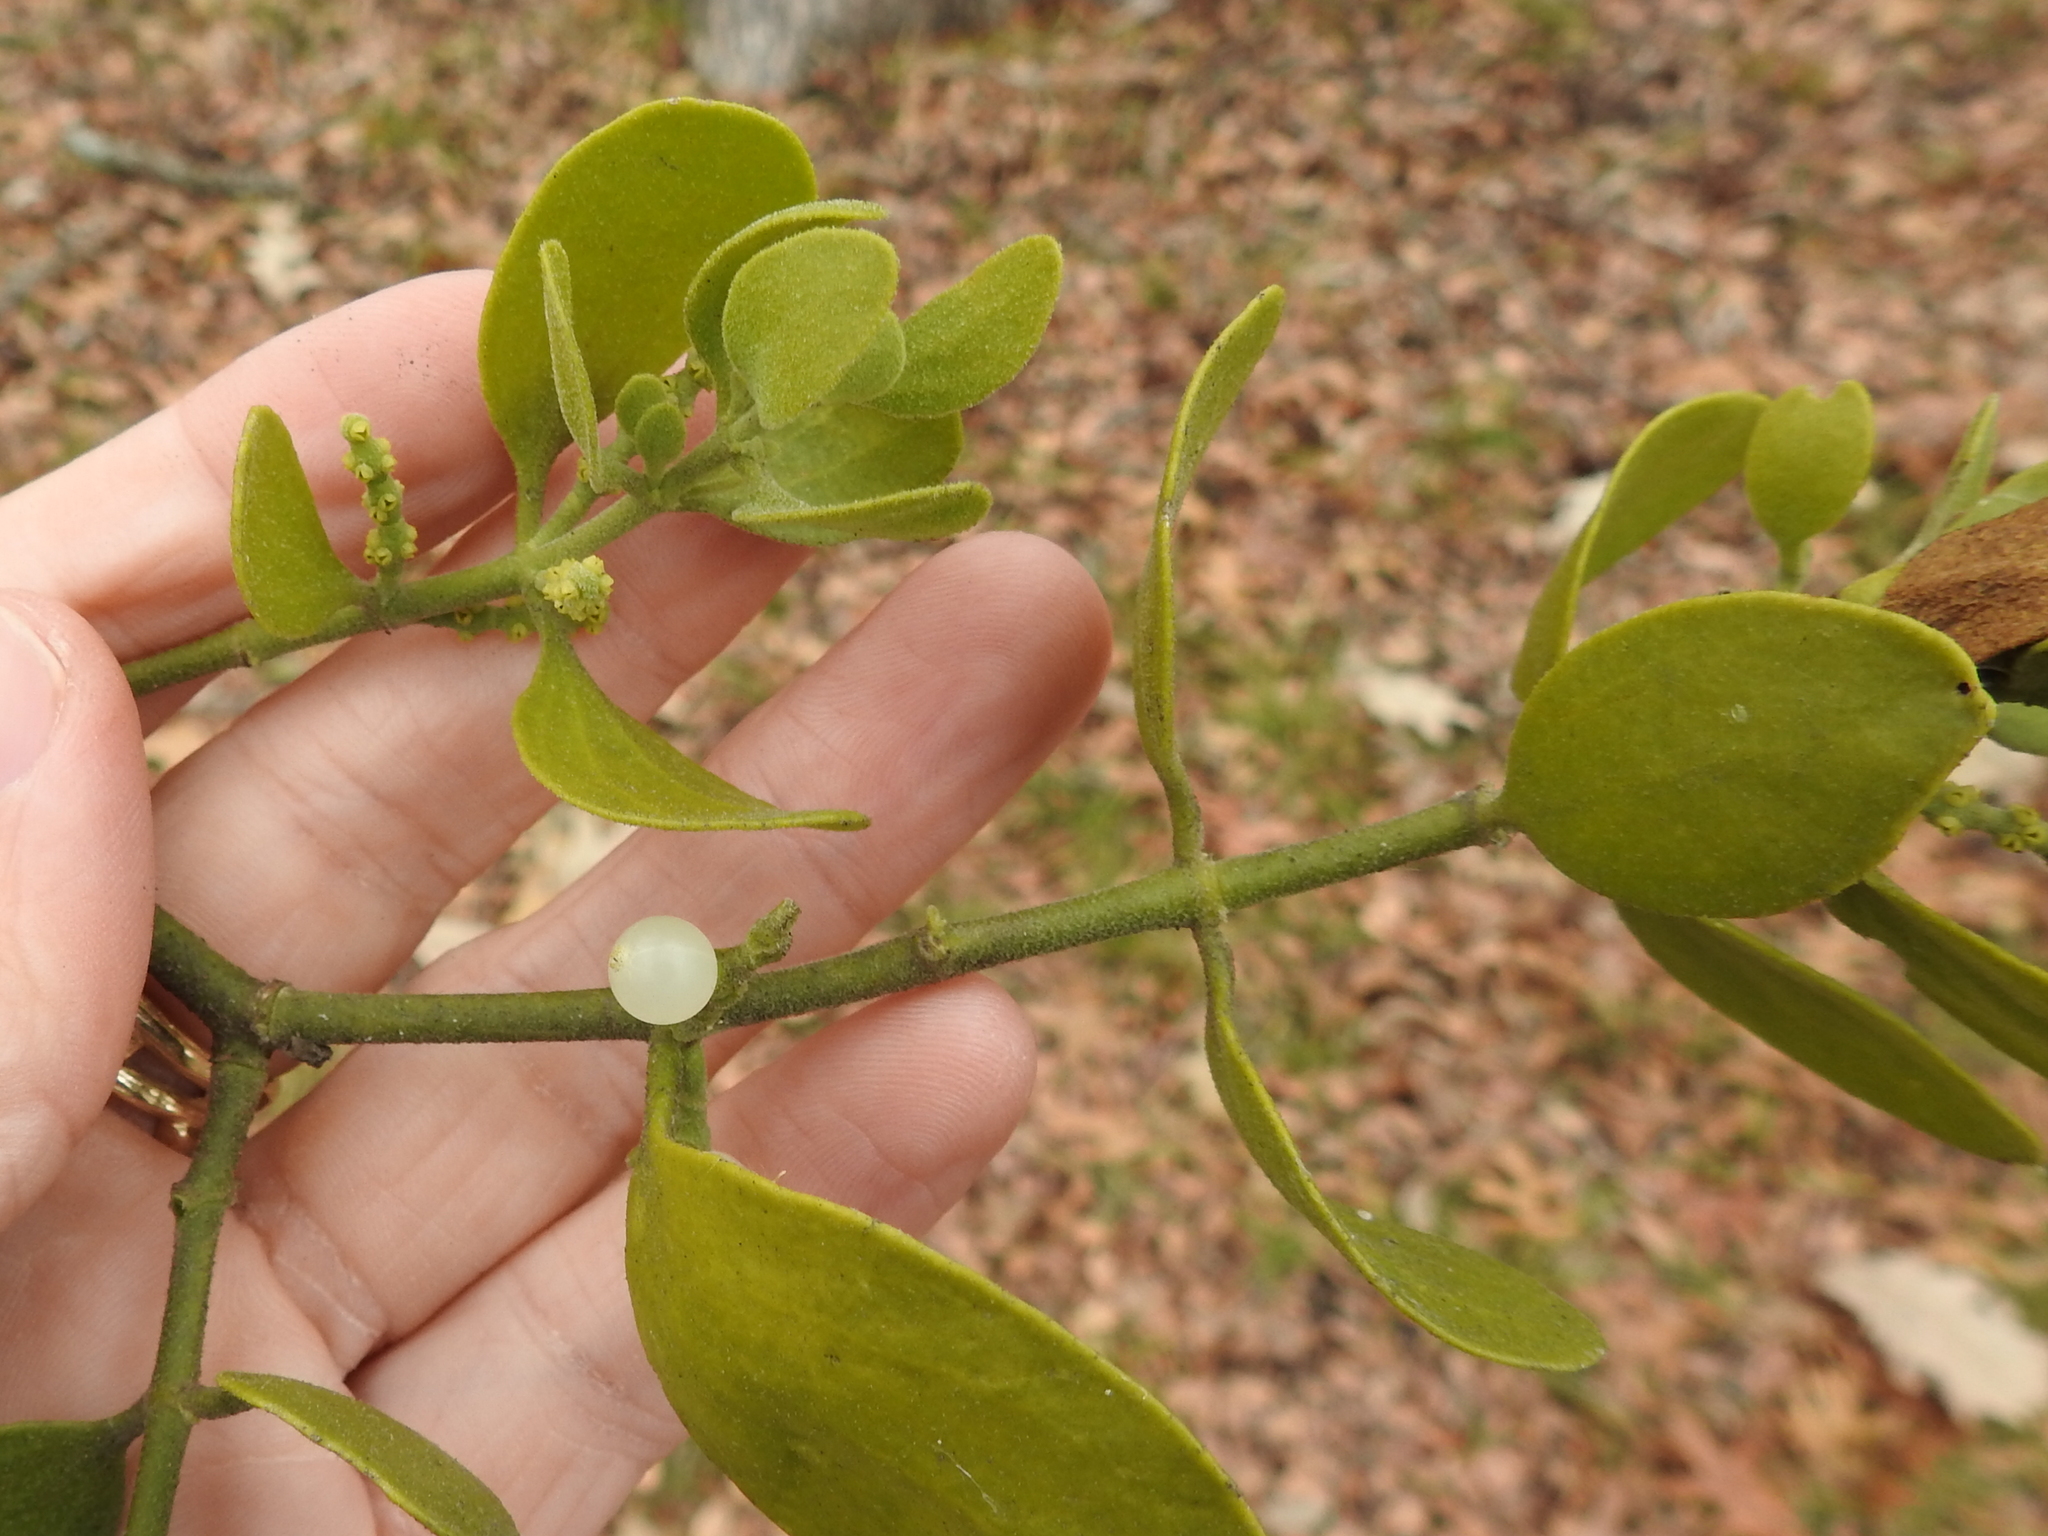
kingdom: Plantae
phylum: Tracheophyta
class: Magnoliopsida
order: Santalales
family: Viscaceae
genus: Phoradendron
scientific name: Phoradendron leucarpum
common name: Pacific mistletoe
